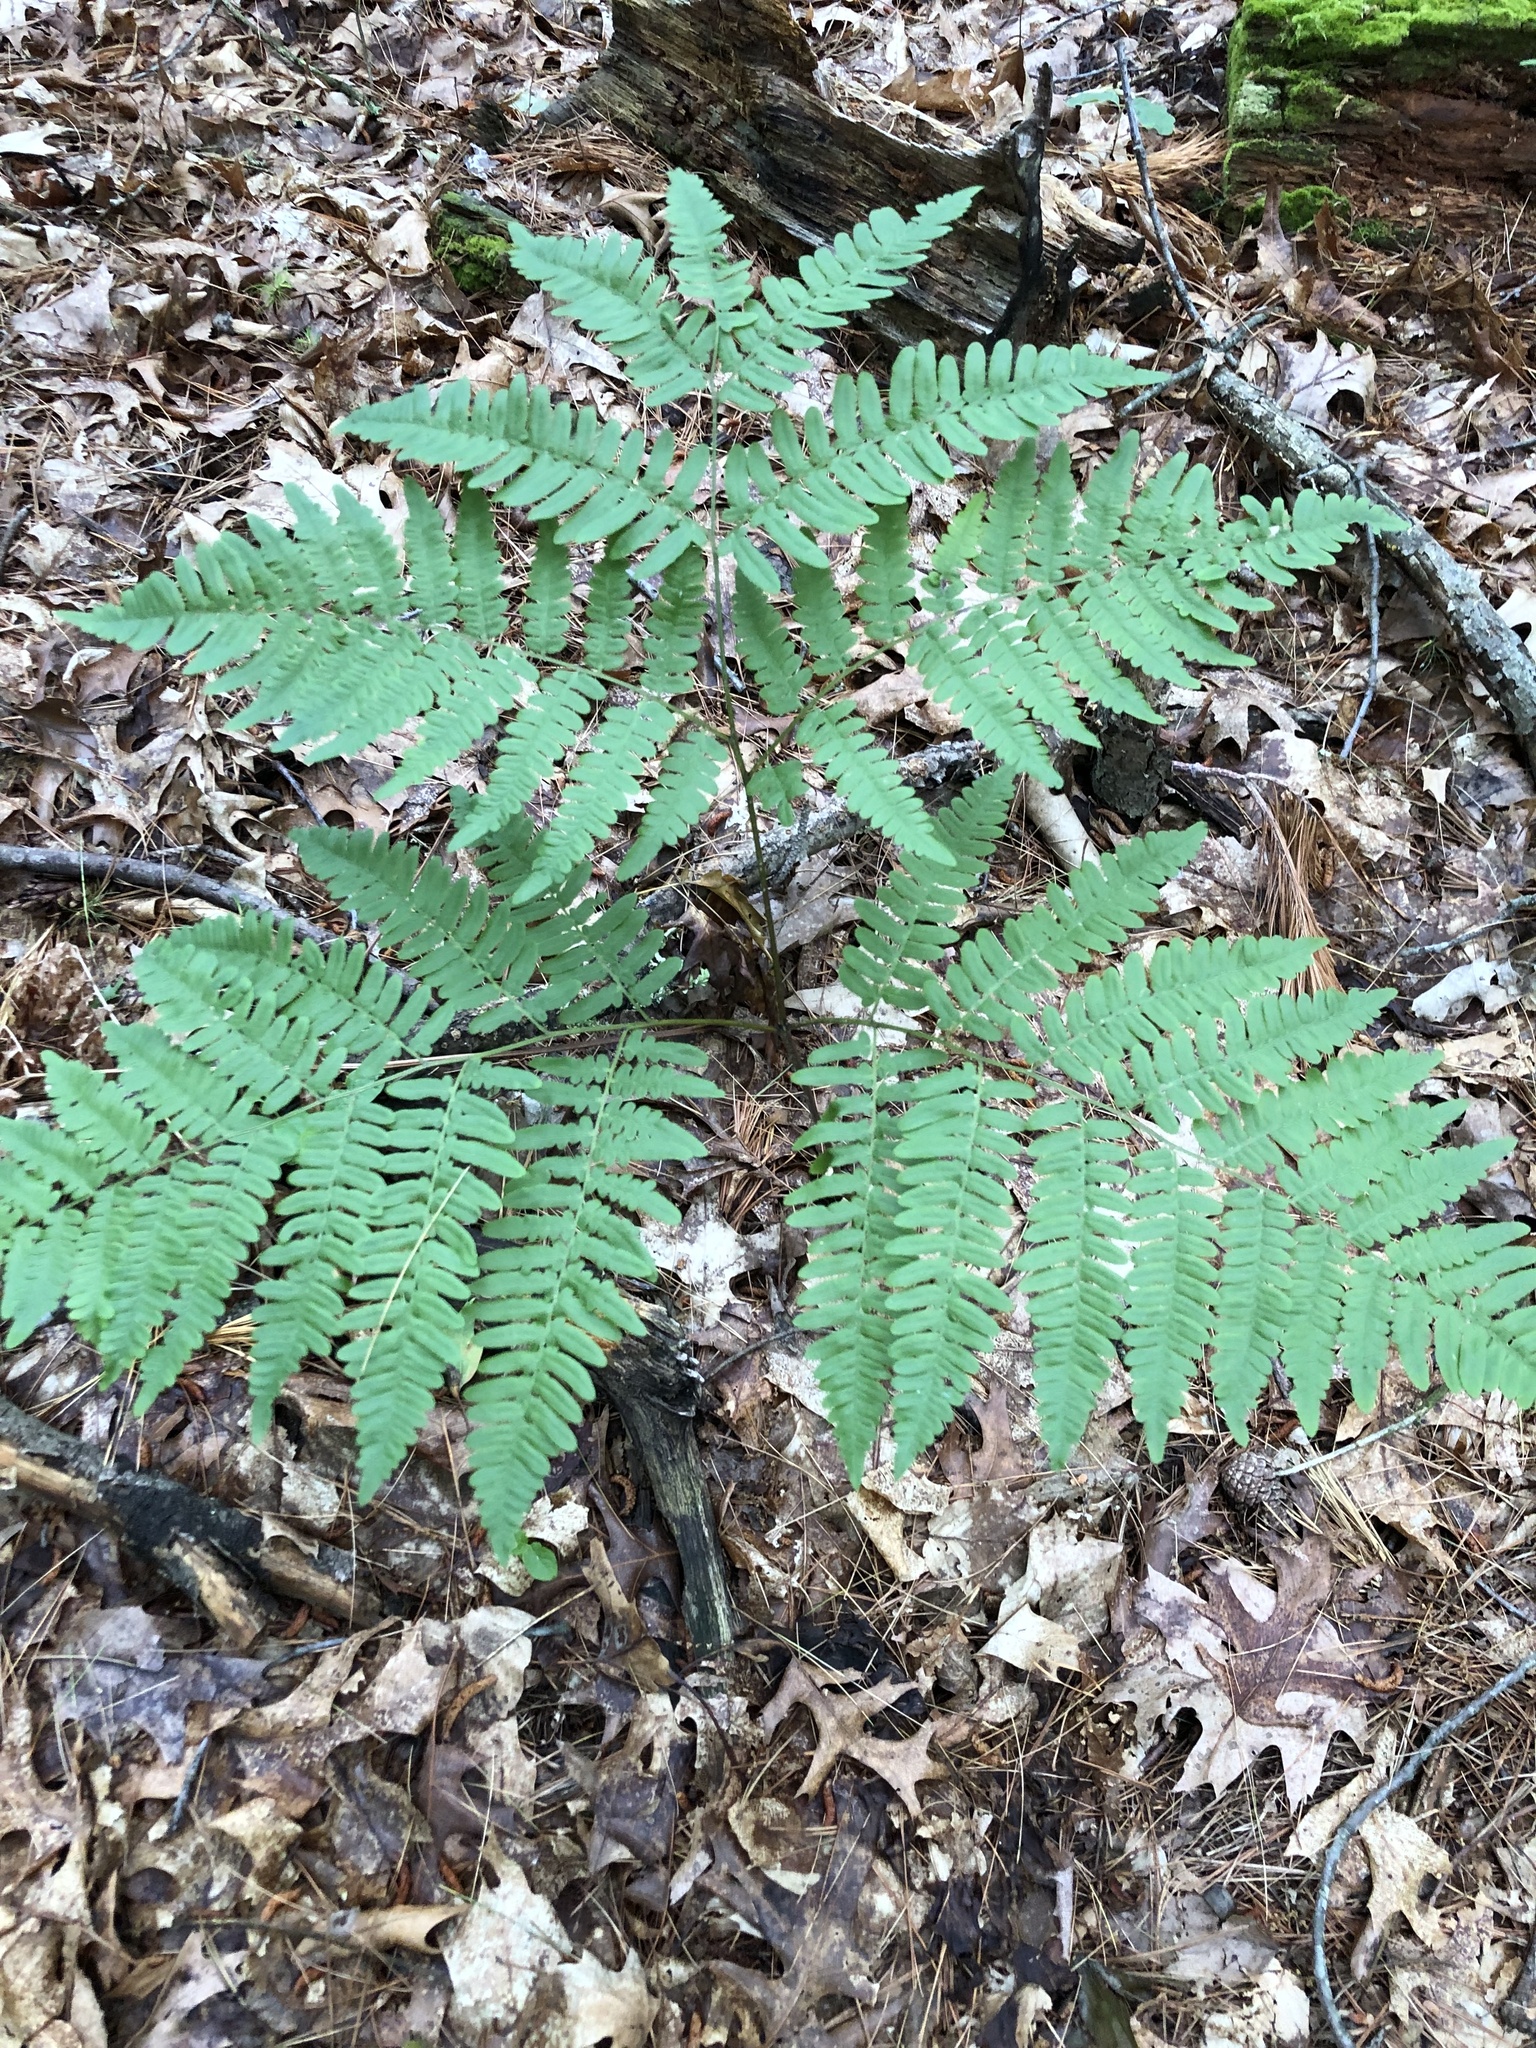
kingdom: Plantae
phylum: Tracheophyta
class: Polypodiopsida
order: Polypodiales
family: Dennstaedtiaceae
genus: Pteridium
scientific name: Pteridium aquilinum
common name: Bracken
